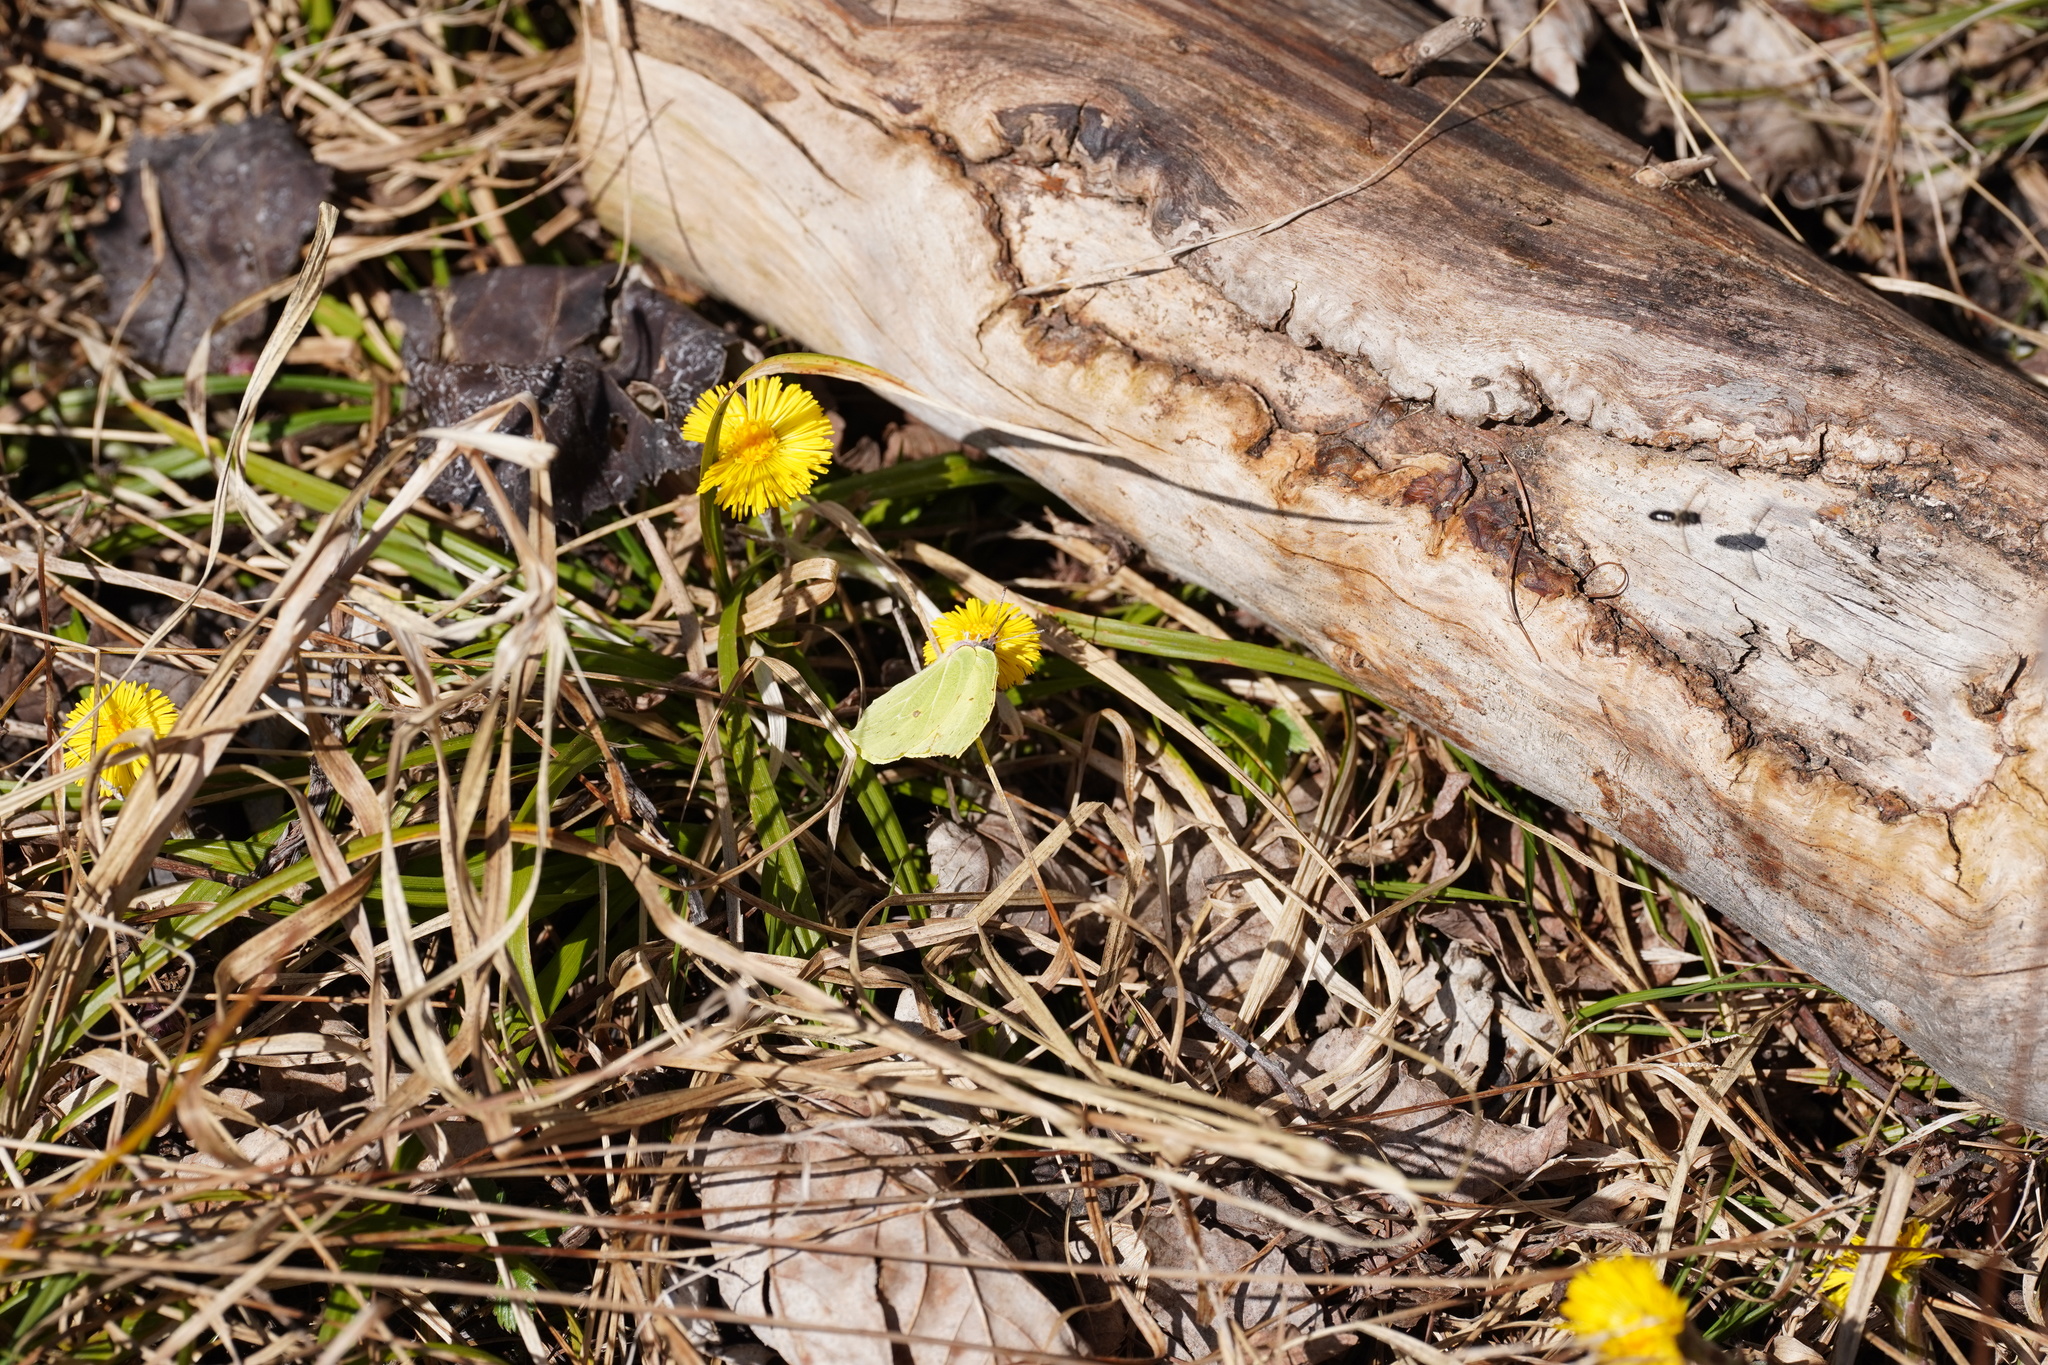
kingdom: Animalia
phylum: Arthropoda
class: Insecta
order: Lepidoptera
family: Pieridae
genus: Gonepteryx
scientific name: Gonepteryx rhamni
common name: Brimstone
